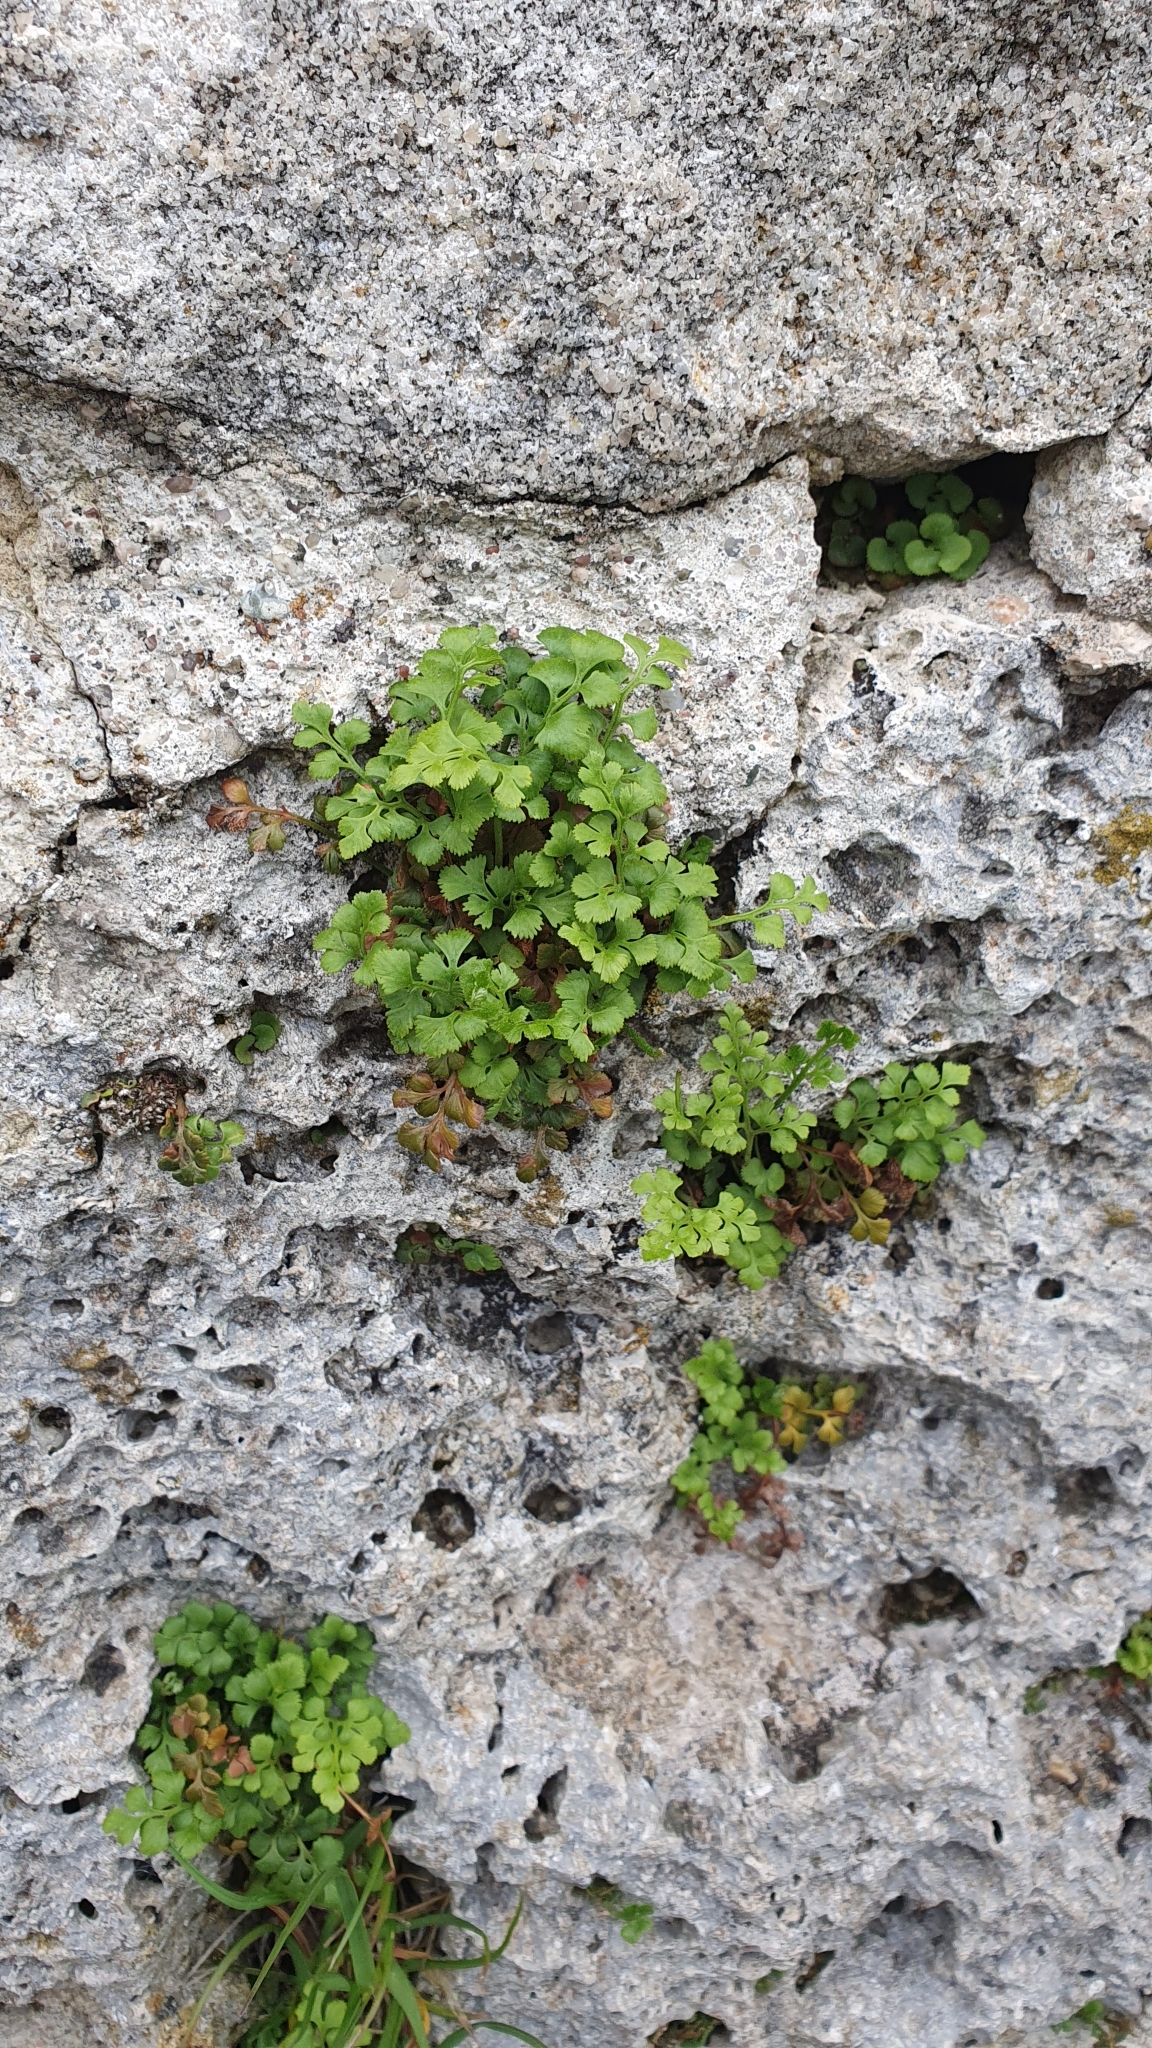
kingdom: Plantae
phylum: Tracheophyta
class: Polypodiopsida
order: Polypodiales
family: Aspleniaceae
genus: Asplenium
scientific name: Asplenium ruta-muraria
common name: Wall-rue
